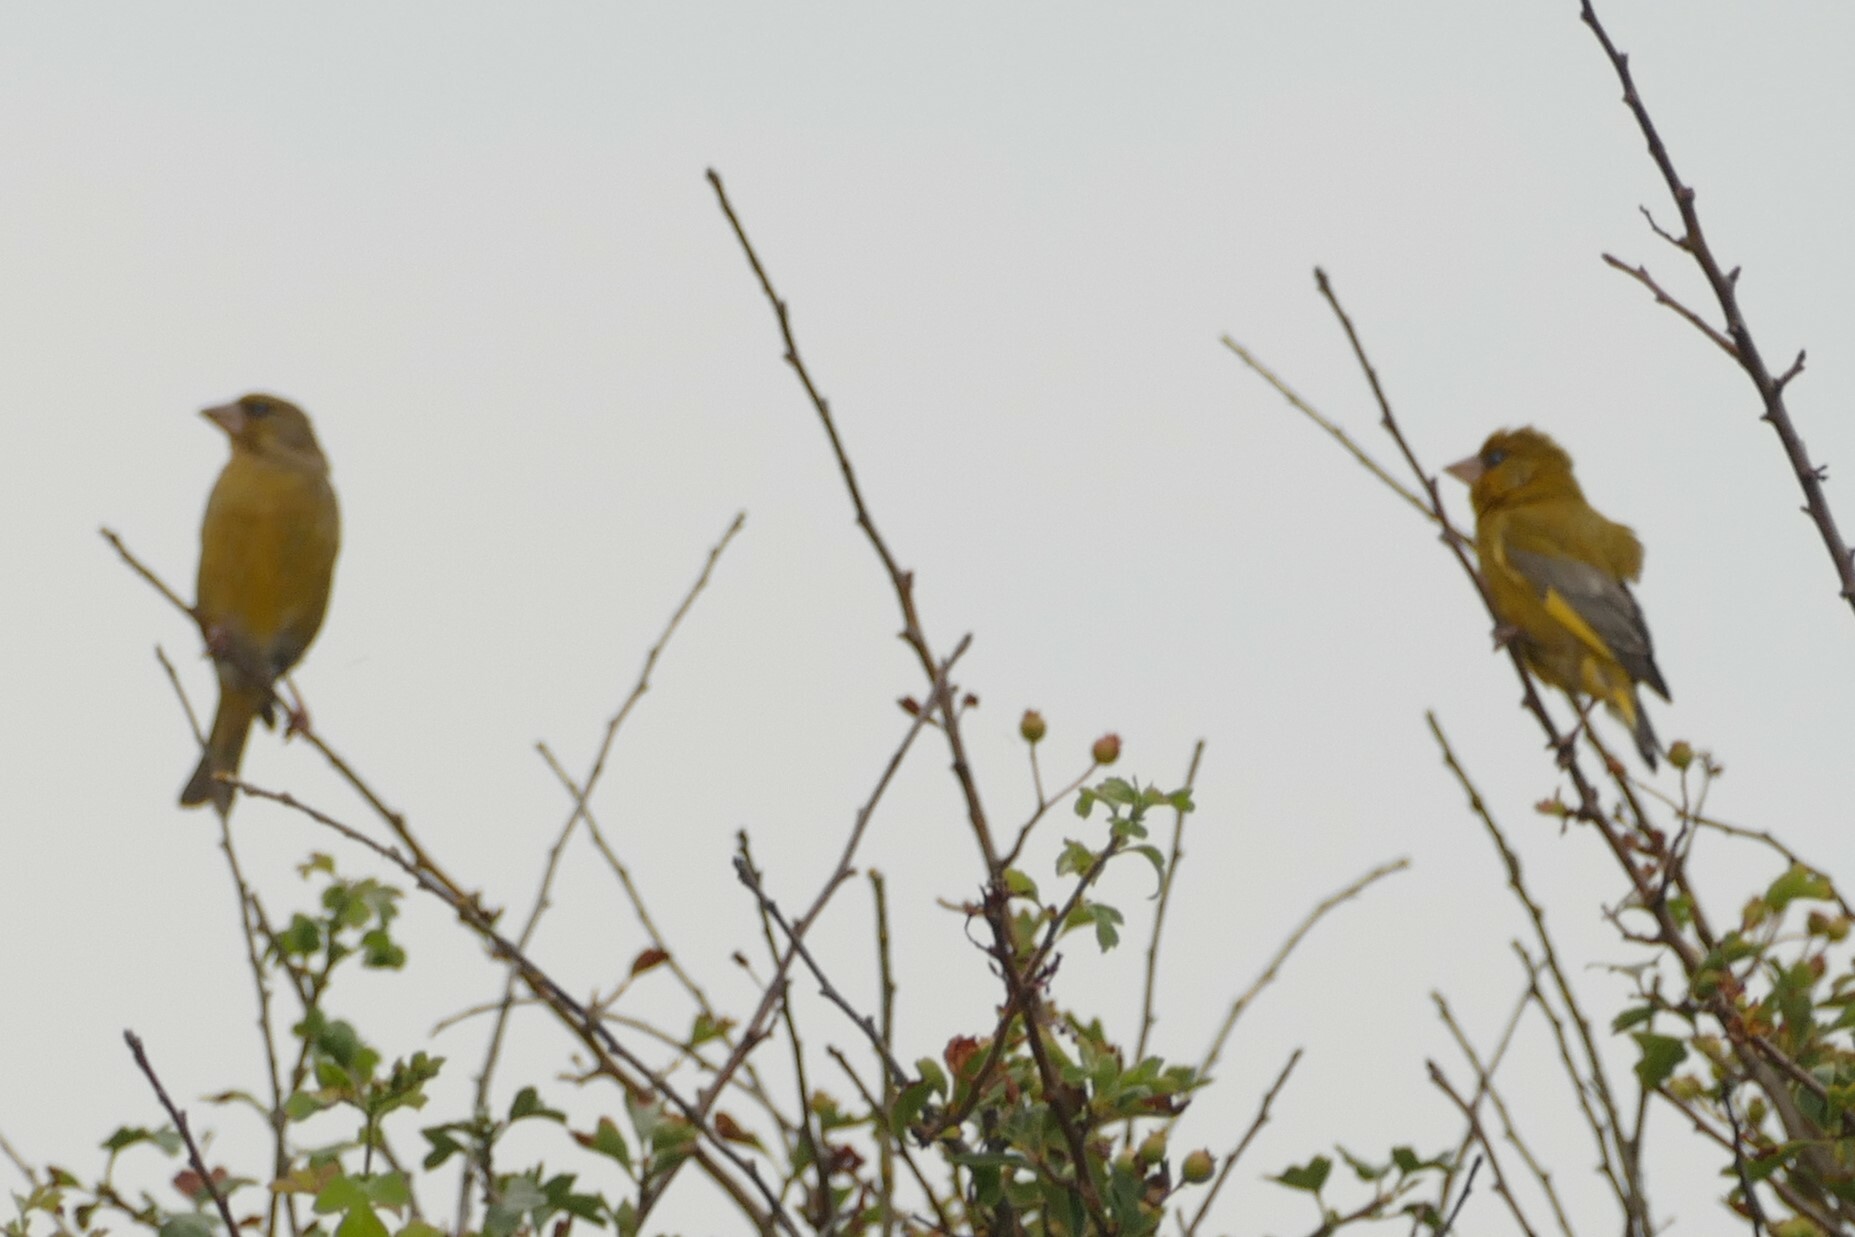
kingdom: Plantae
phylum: Tracheophyta
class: Liliopsida
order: Poales
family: Poaceae
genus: Chloris
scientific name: Chloris chloris
